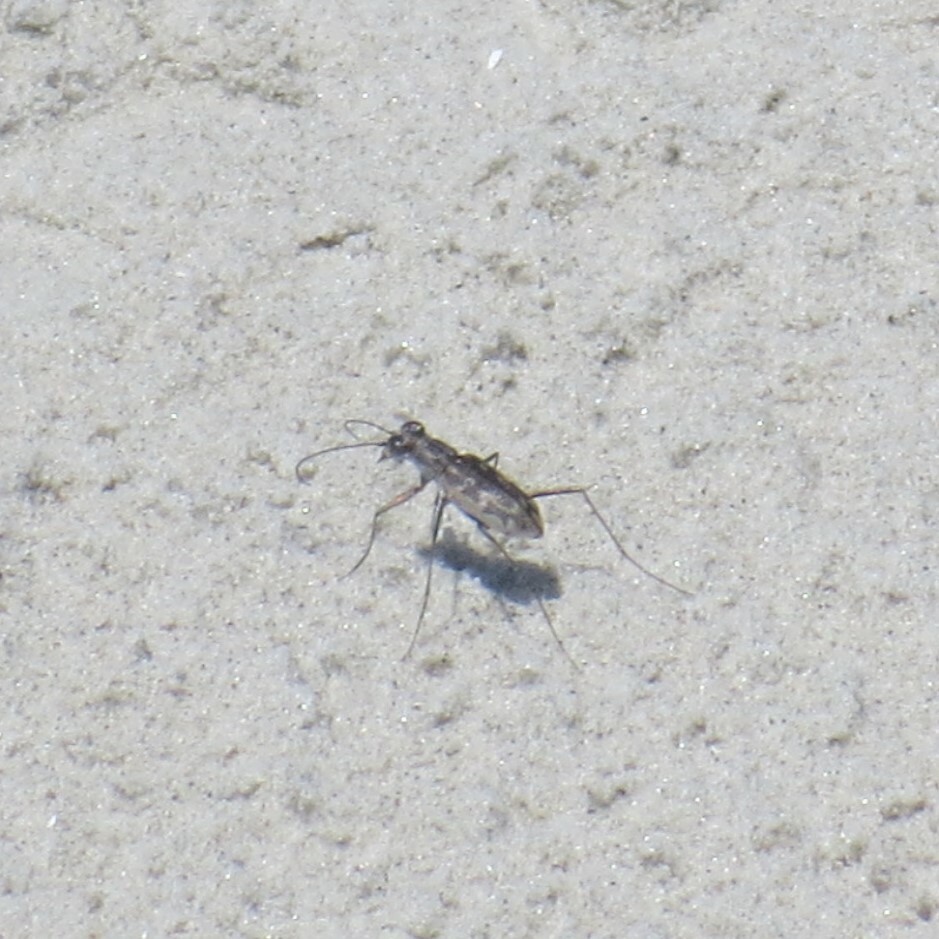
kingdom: Animalia
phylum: Arthropoda
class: Insecta
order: Coleoptera
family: Carabidae
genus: Ellipsoptera
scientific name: Ellipsoptera marginata
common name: Margined tiger beetle
